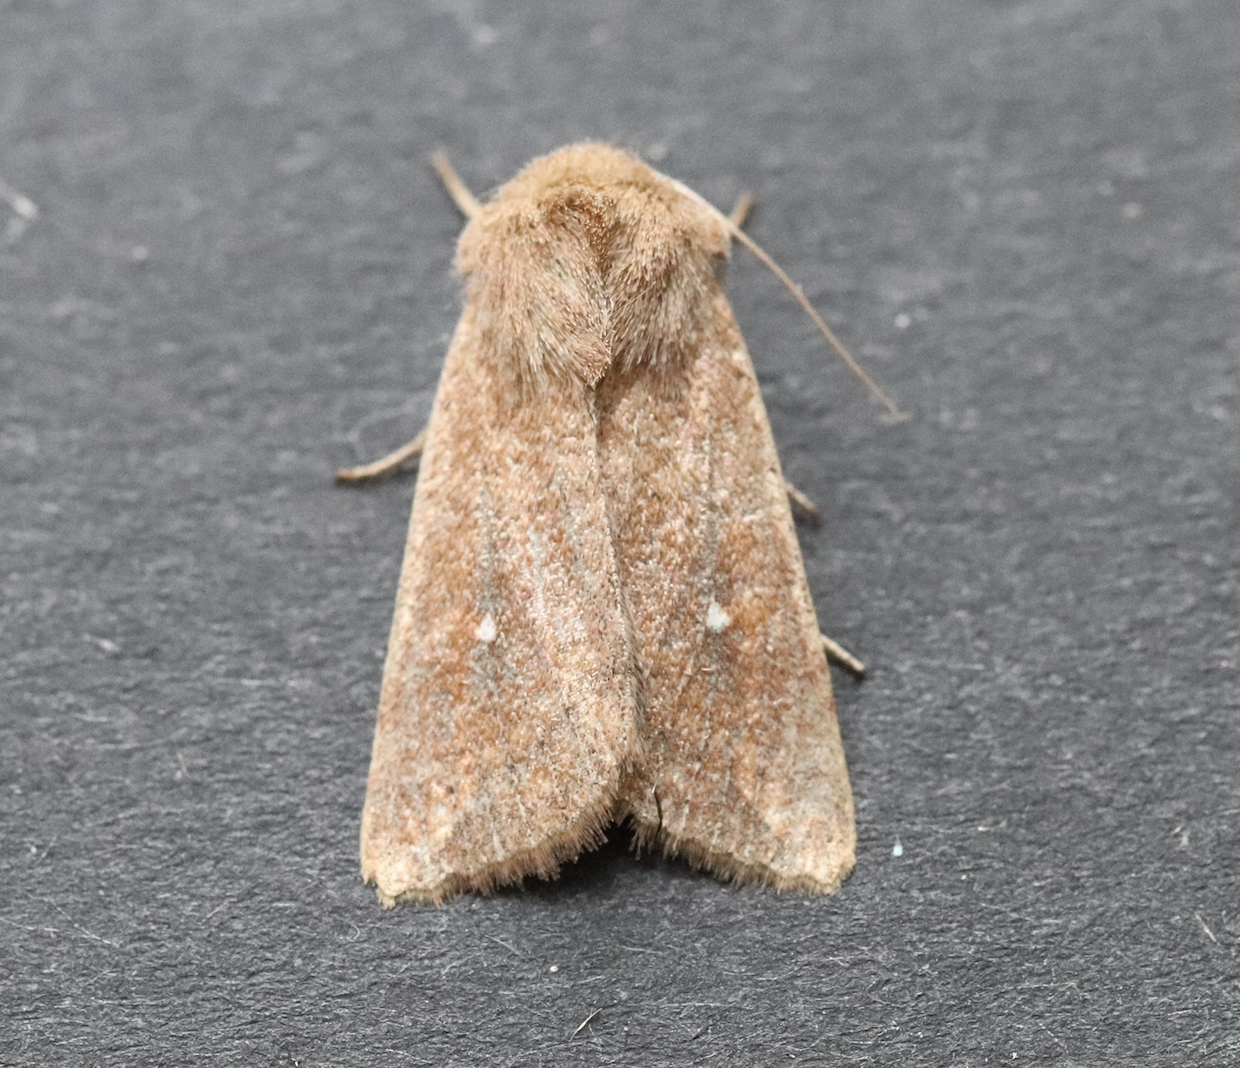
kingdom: Animalia
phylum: Arthropoda
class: Insecta
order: Lepidoptera
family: Noctuidae
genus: Mythimna
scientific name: Mythimna albipuncta
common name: White-point
